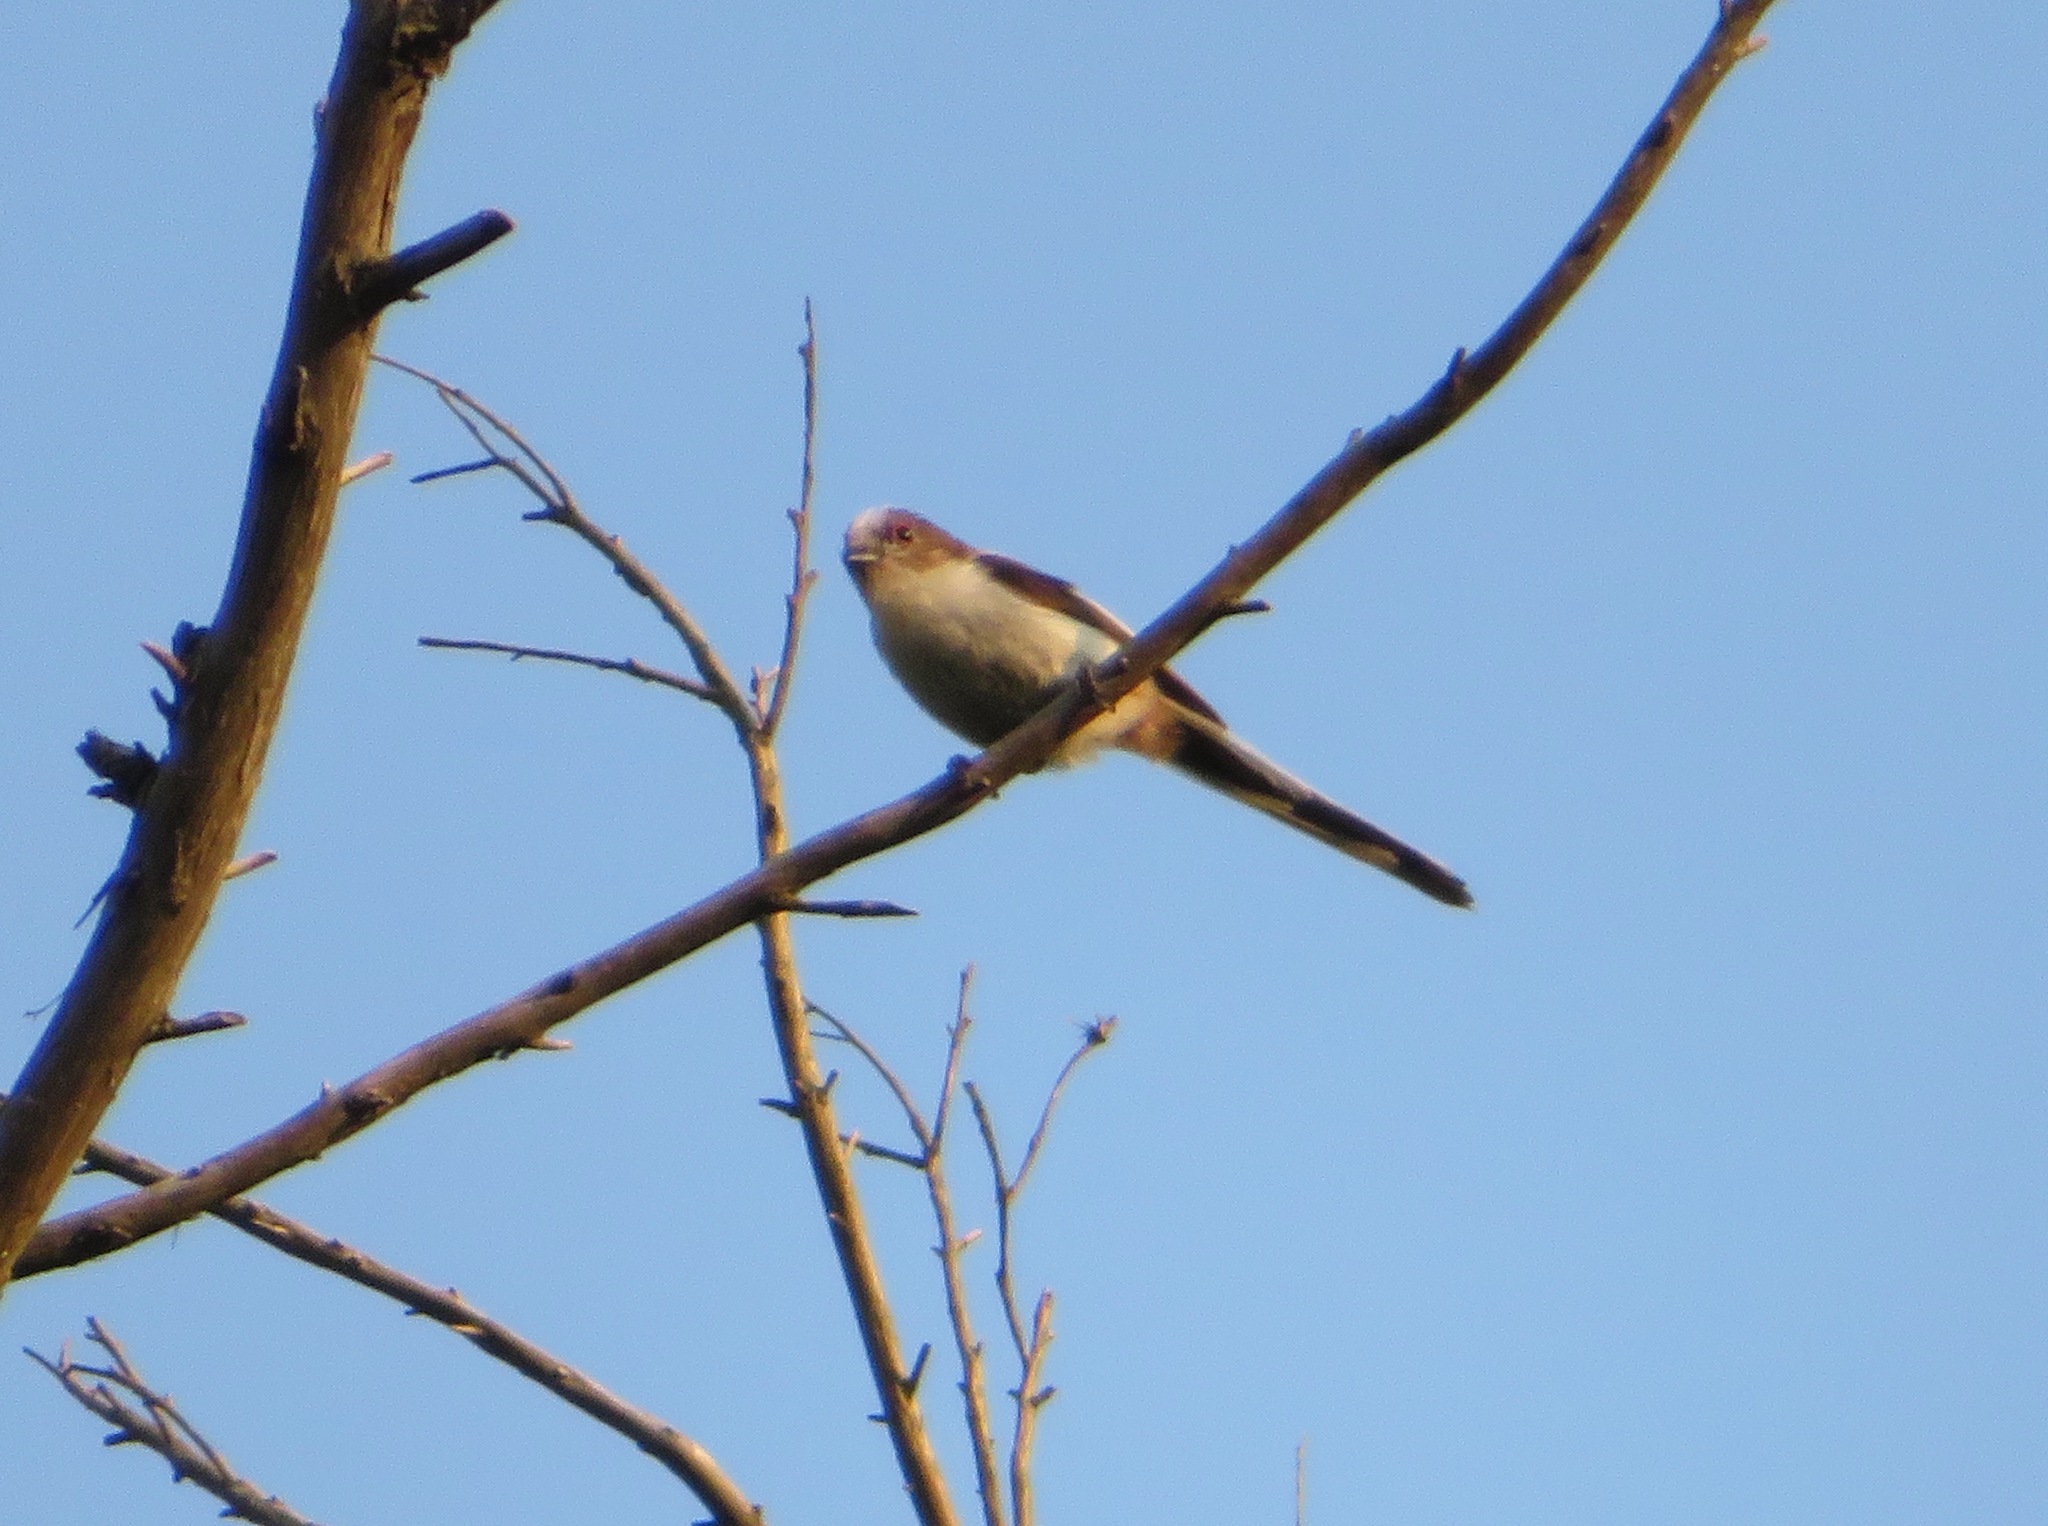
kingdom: Animalia
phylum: Chordata
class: Aves
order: Passeriformes
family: Aegithalidae
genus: Aegithalos
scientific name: Aegithalos caudatus
